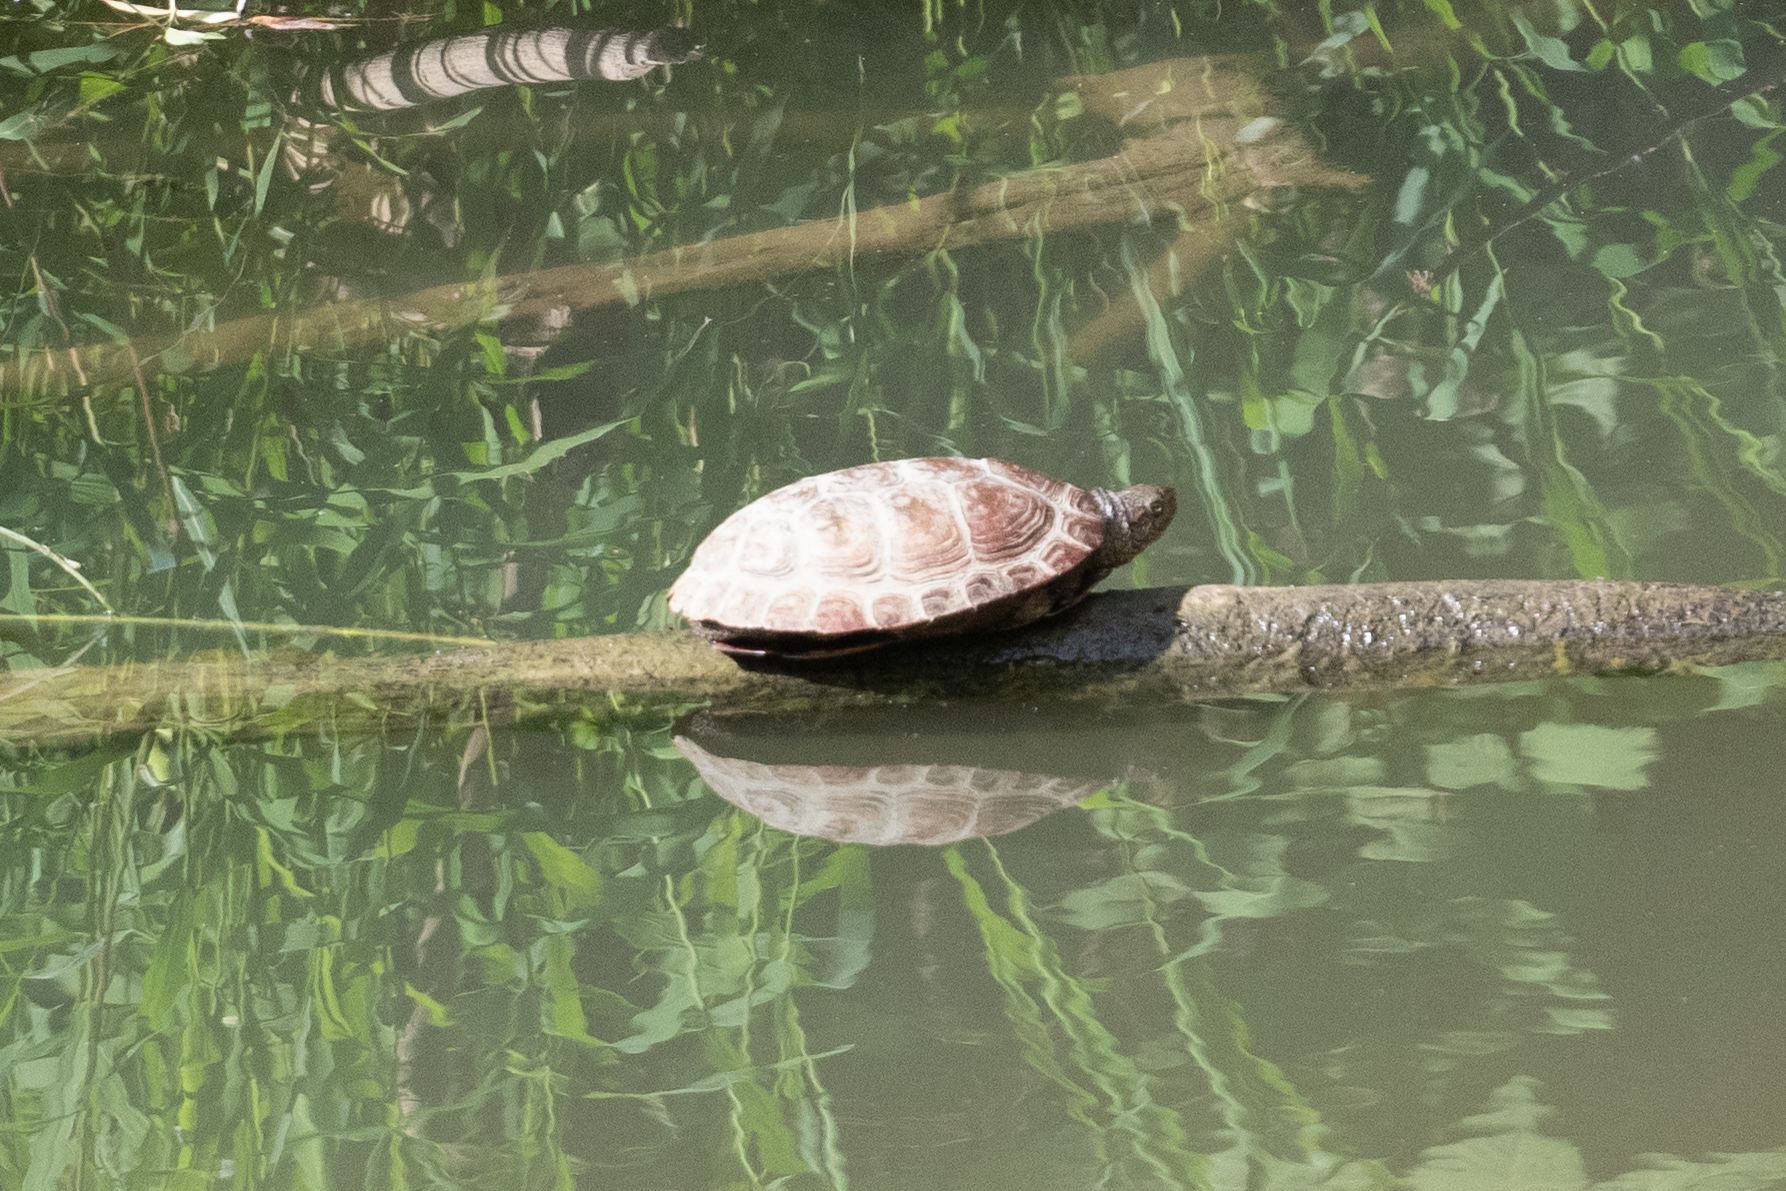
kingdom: Animalia
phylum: Chordata
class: Testudines
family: Emydidae
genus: Actinemys
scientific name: Actinemys marmorata
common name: Western pond turtle
